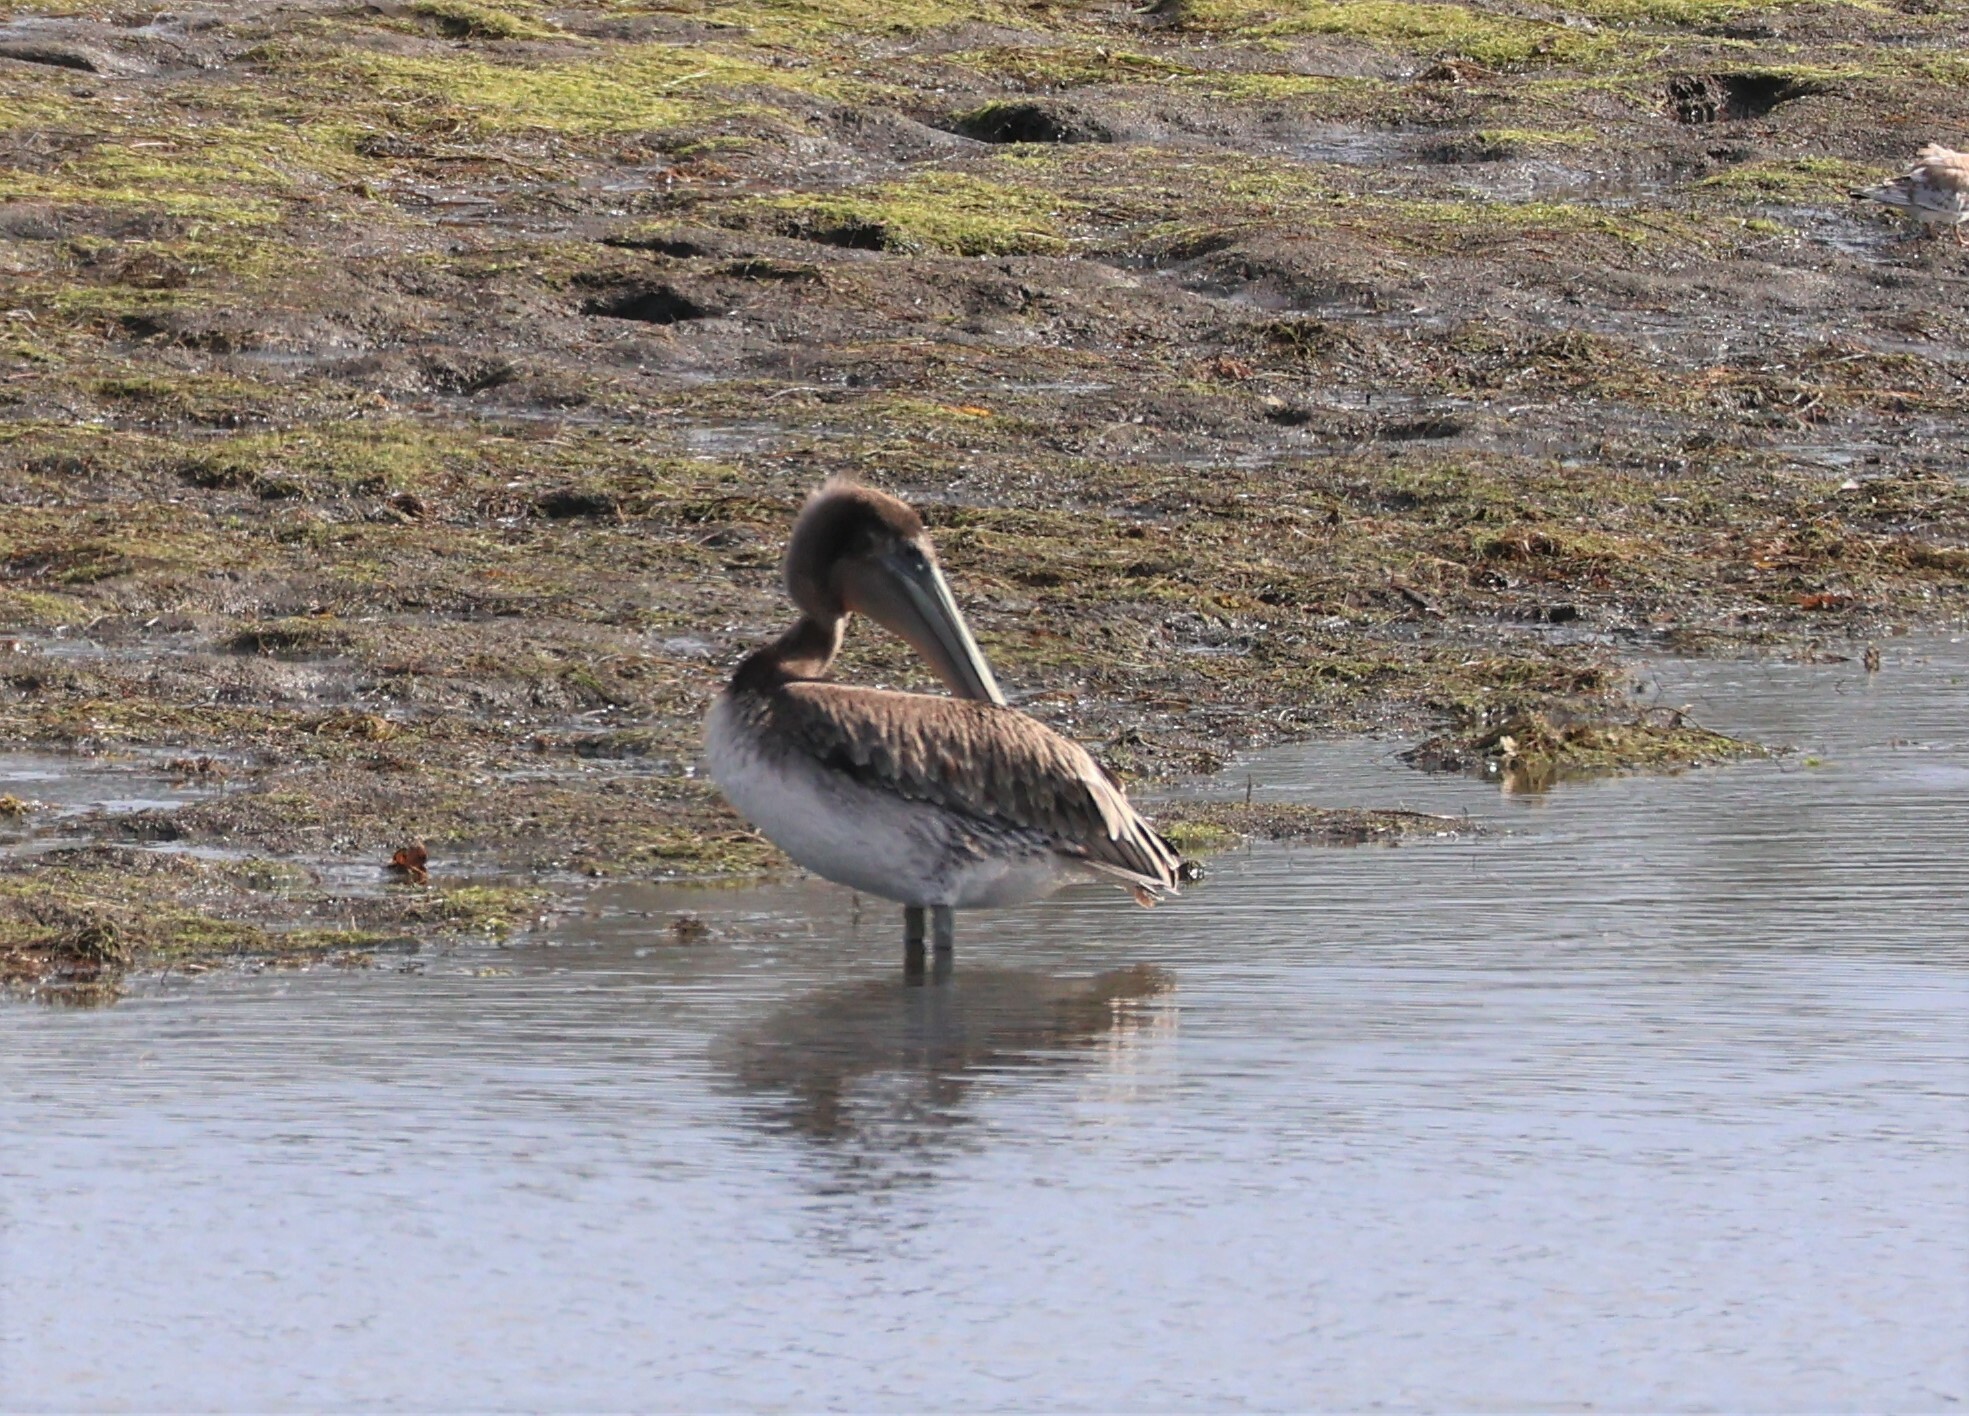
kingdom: Animalia
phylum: Chordata
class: Aves
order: Pelecaniformes
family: Pelecanidae
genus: Pelecanus
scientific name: Pelecanus occidentalis
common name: Brown pelican
